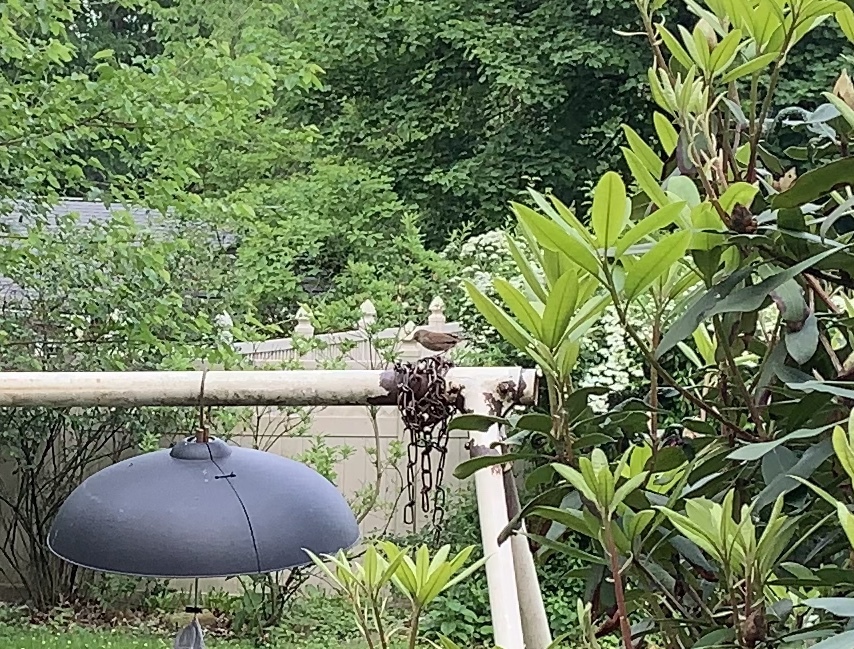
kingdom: Animalia
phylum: Chordata
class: Aves
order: Passeriformes
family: Troglodytidae
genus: Troglodytes
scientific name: Troglodytes aedon
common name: House wren
